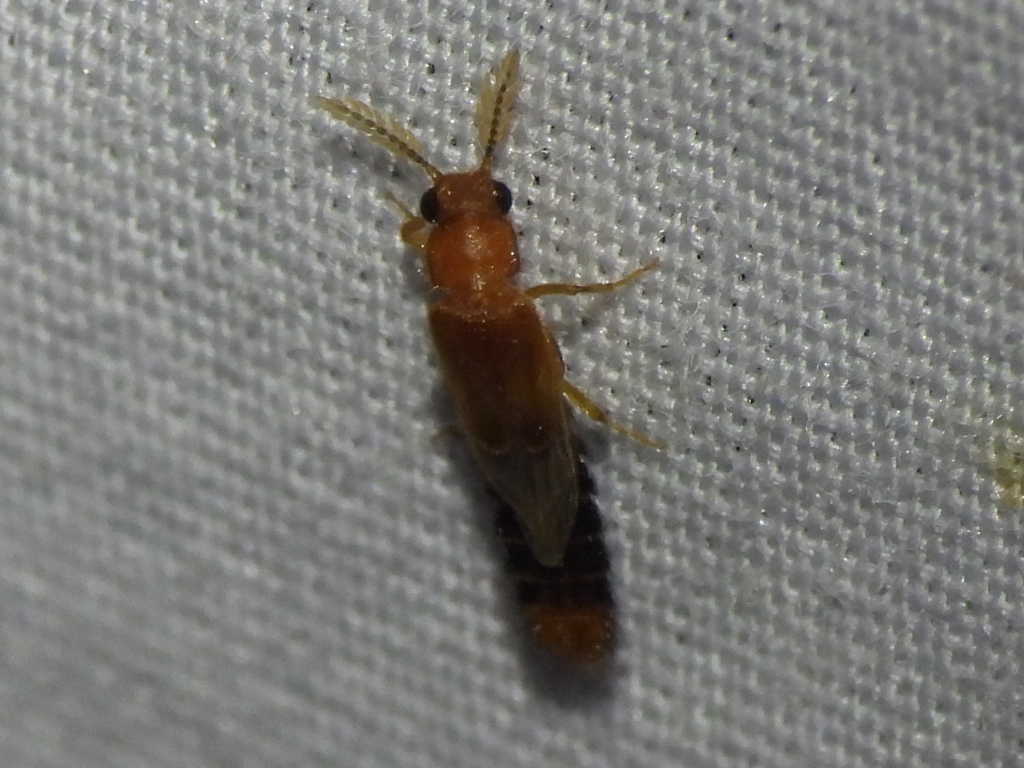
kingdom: Animalia
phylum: Arthropoda
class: Insecta
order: Coleoptera
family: Phengodidae
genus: Distremocephalus
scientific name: Distremocephalus texanus
